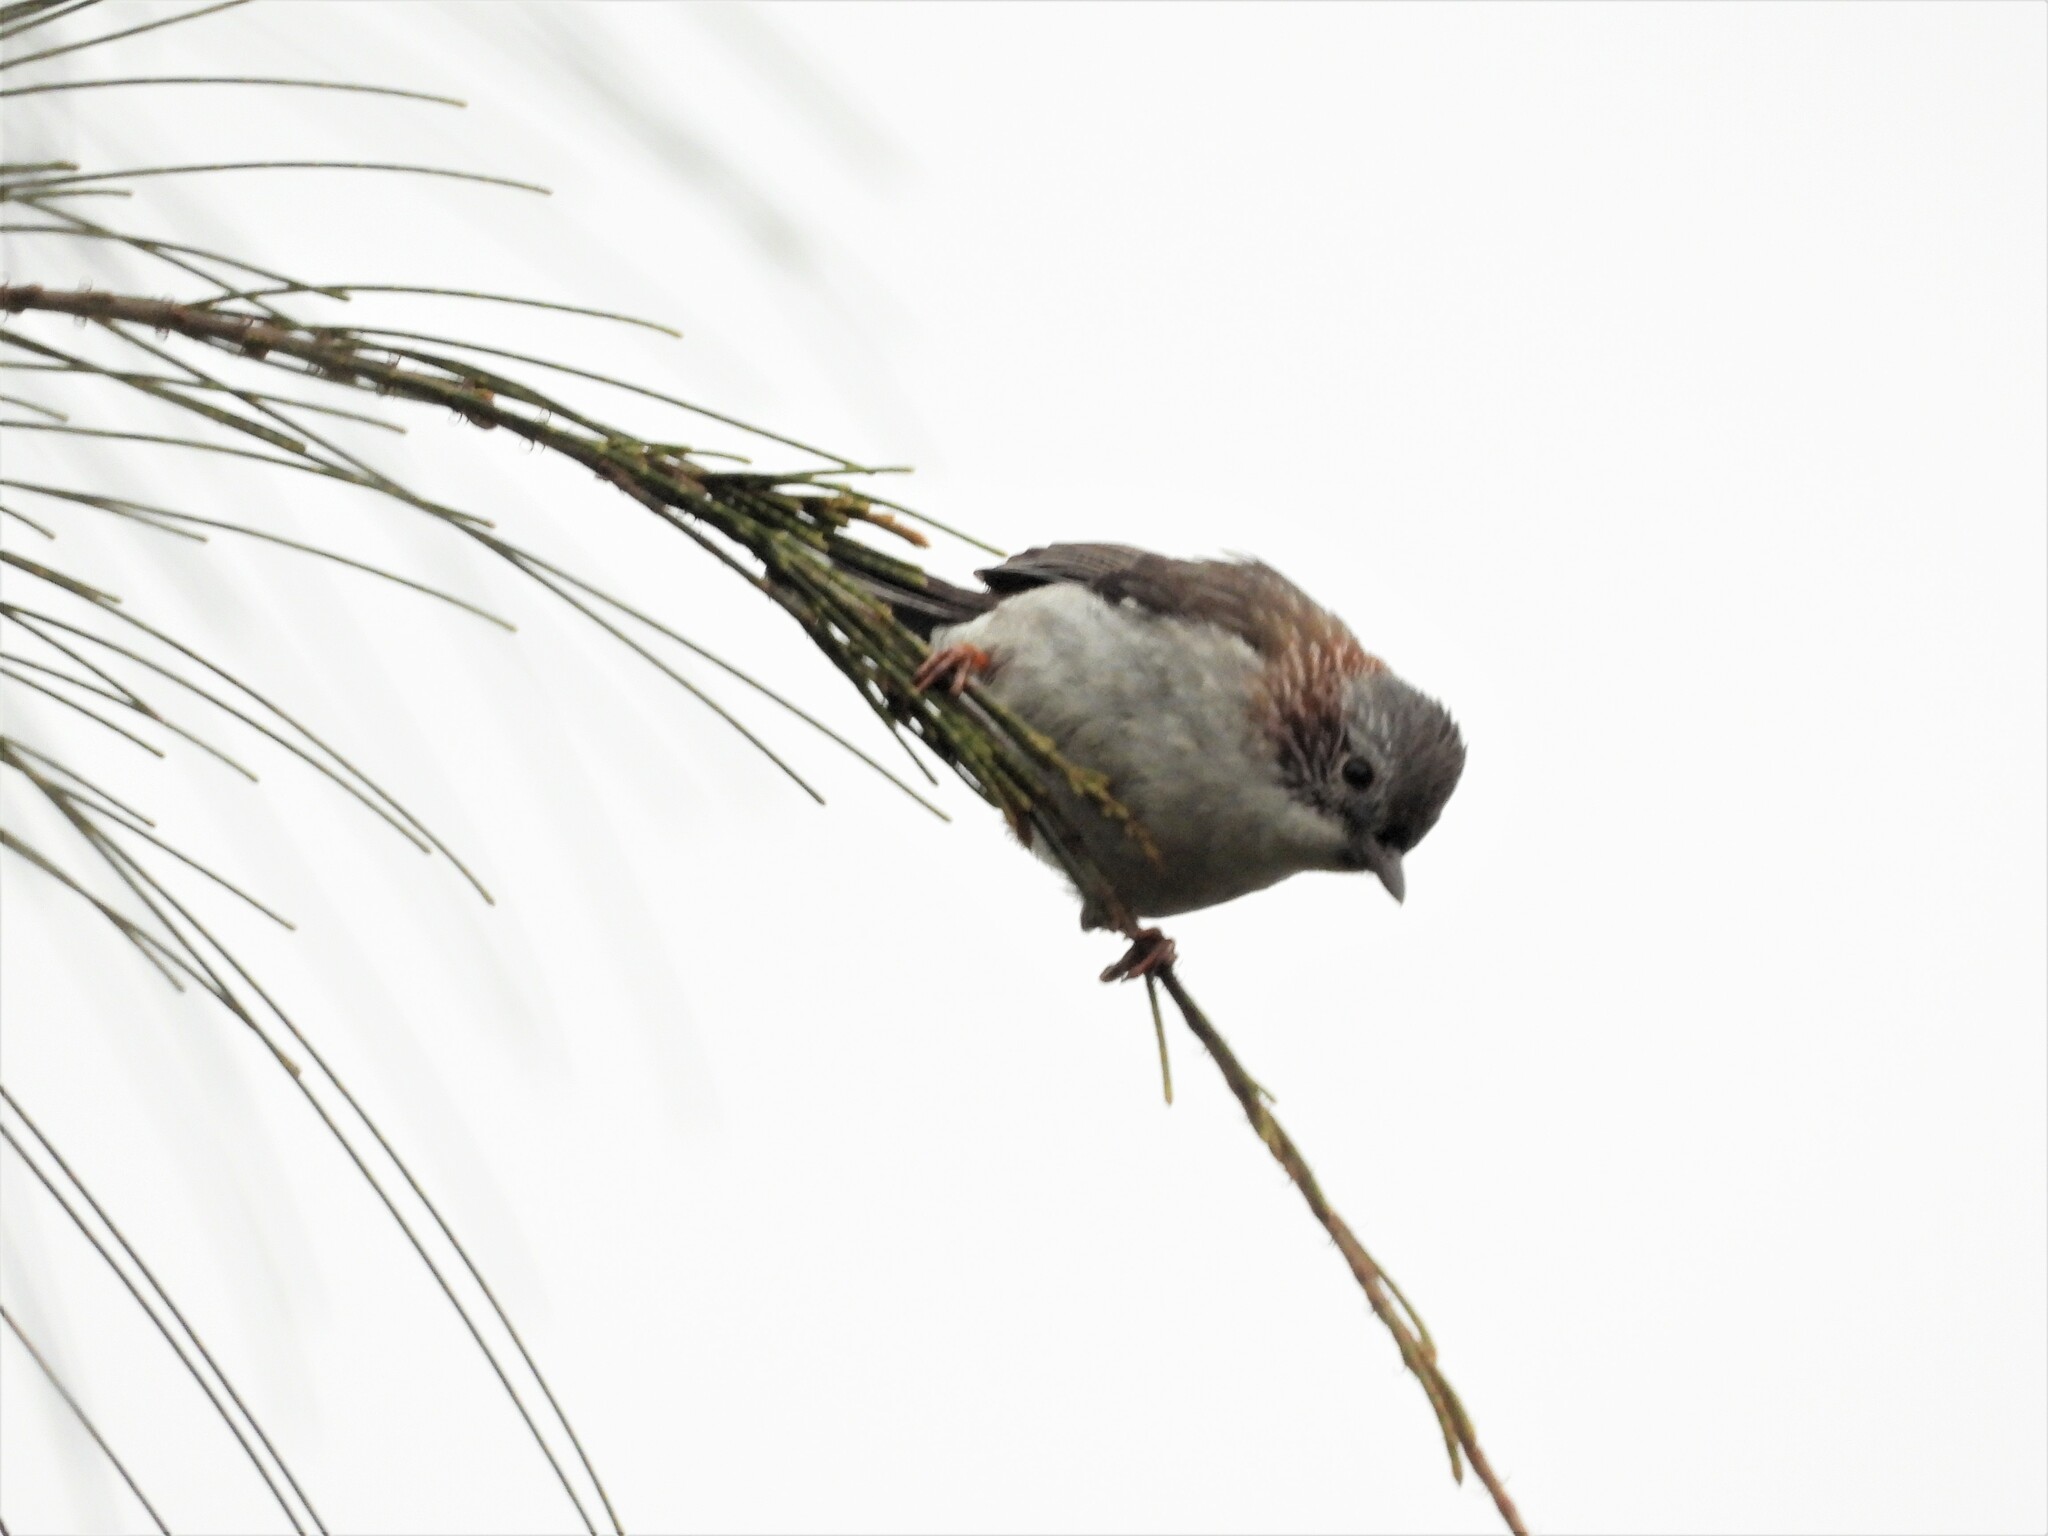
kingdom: Animalia
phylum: Chordata
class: Aves
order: Passeriformes
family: Zosteropidae
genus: Yuhina
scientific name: Yuhina torqueola
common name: Indochinese yuhina
